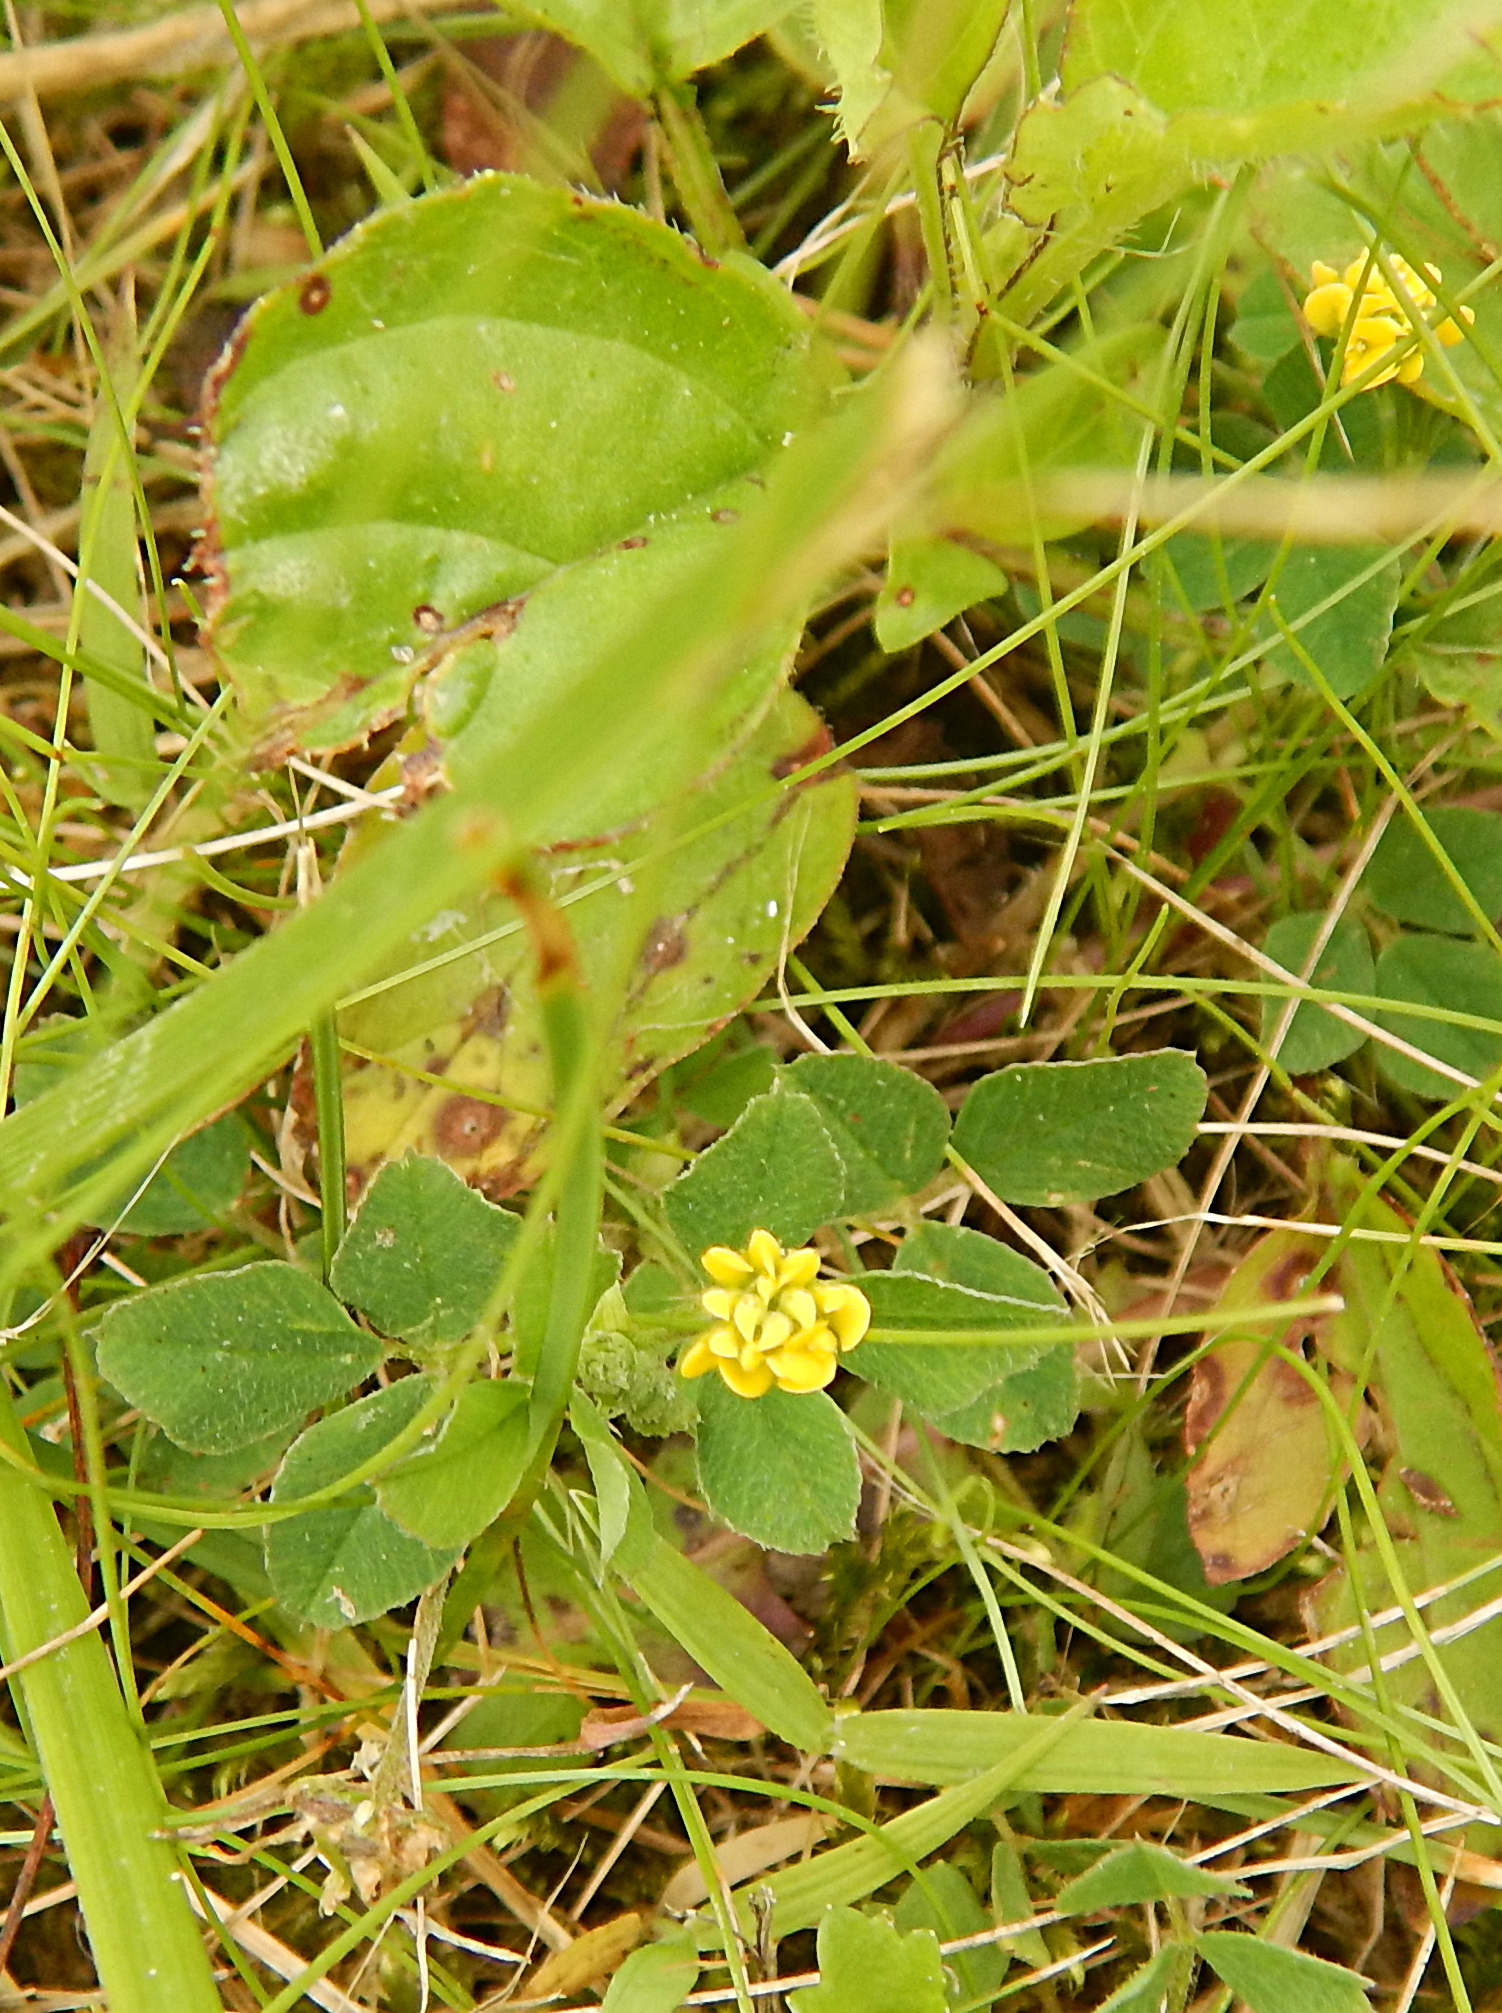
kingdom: Plantae
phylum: Tracheophyta
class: Magnoliopsida
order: Fabales
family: Fabaceae
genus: Medicago
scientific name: Medicago lupulina
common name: Black medick
